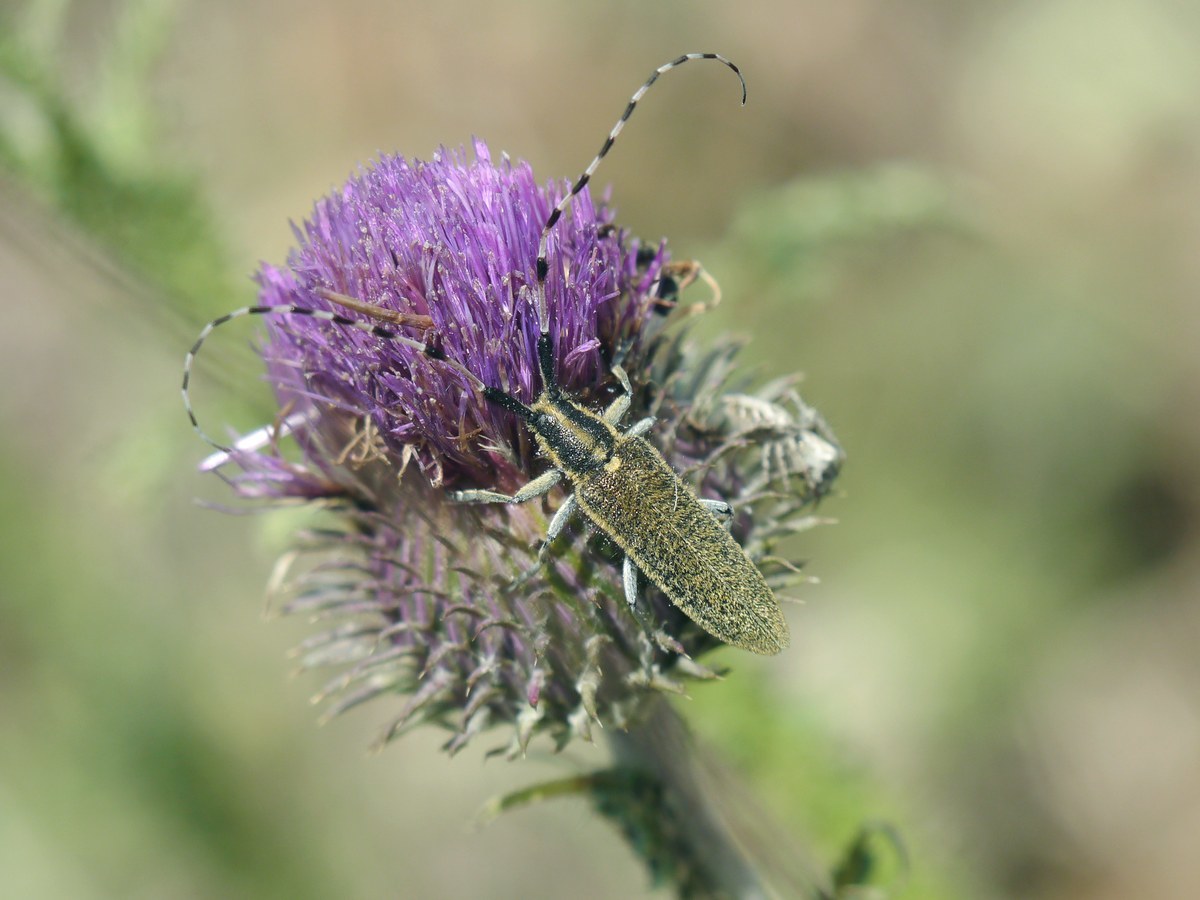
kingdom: Animalia
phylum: Arthropoda
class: Insecta
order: Coleoptera
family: Cerambycidae
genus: Agapanthia
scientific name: Agapanthia dahlii
